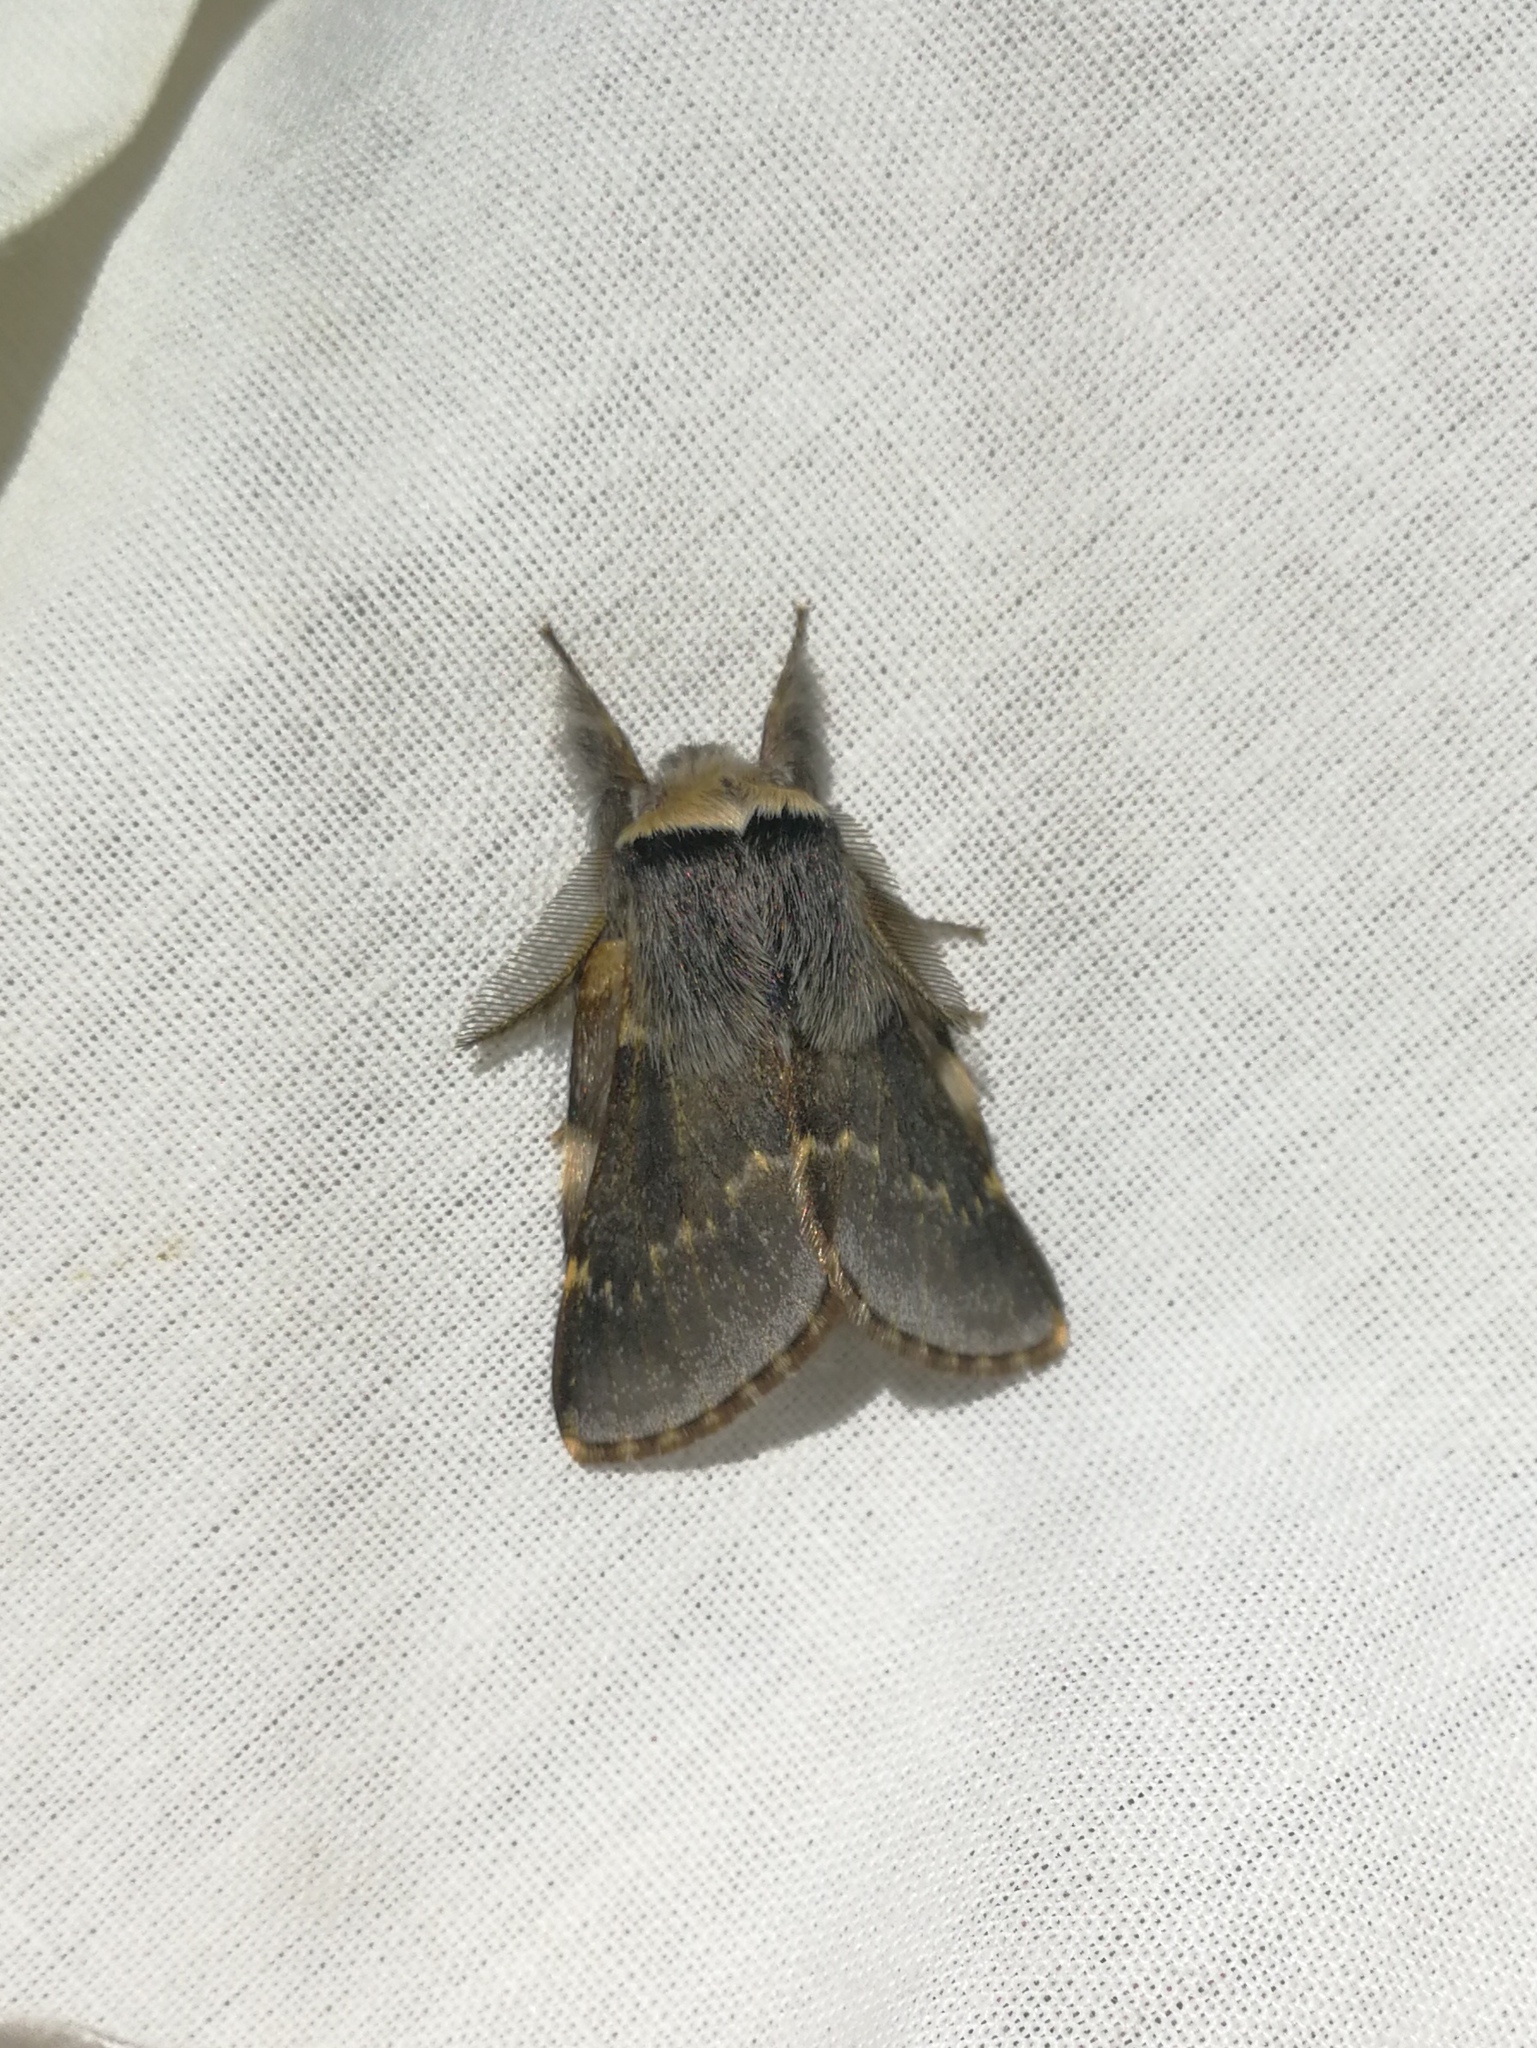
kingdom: Animalia
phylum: Arthropoda
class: Insecta
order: Lepidoptera
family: Lasiocampidae
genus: Poecilocampa
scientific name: Poecilocampa populi
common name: December moth
